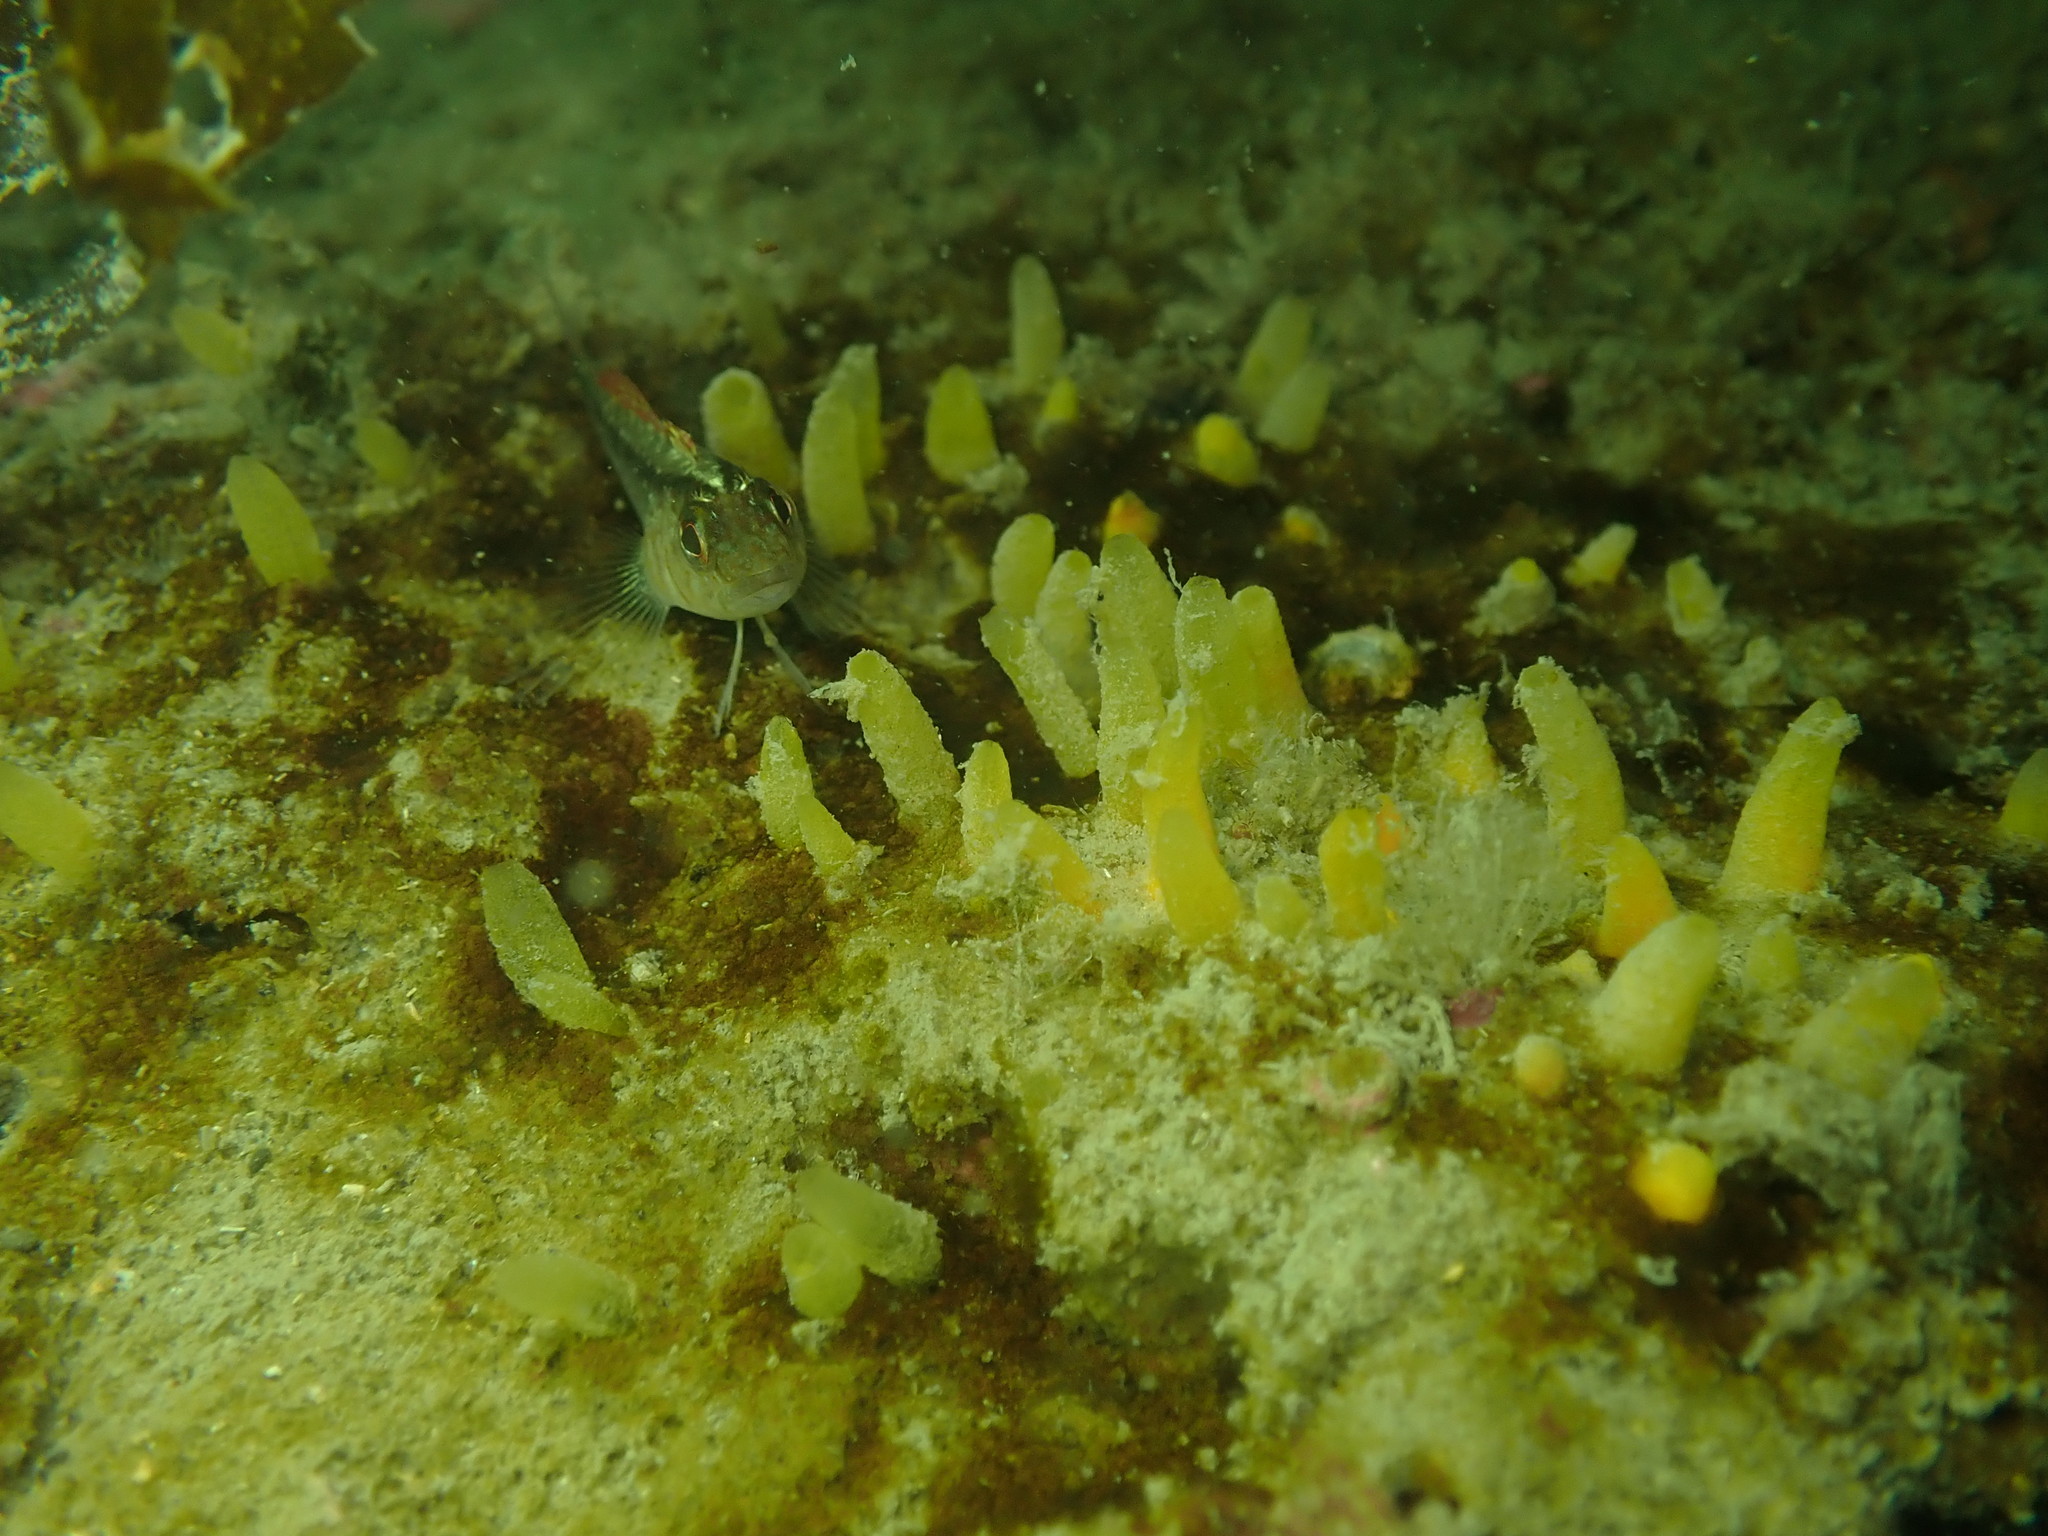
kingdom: Animalia
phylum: Chordata
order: Perciformes
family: Tripterygiidae
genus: Forsterygion
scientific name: Forsterygion lapillum
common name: Common triplefin
